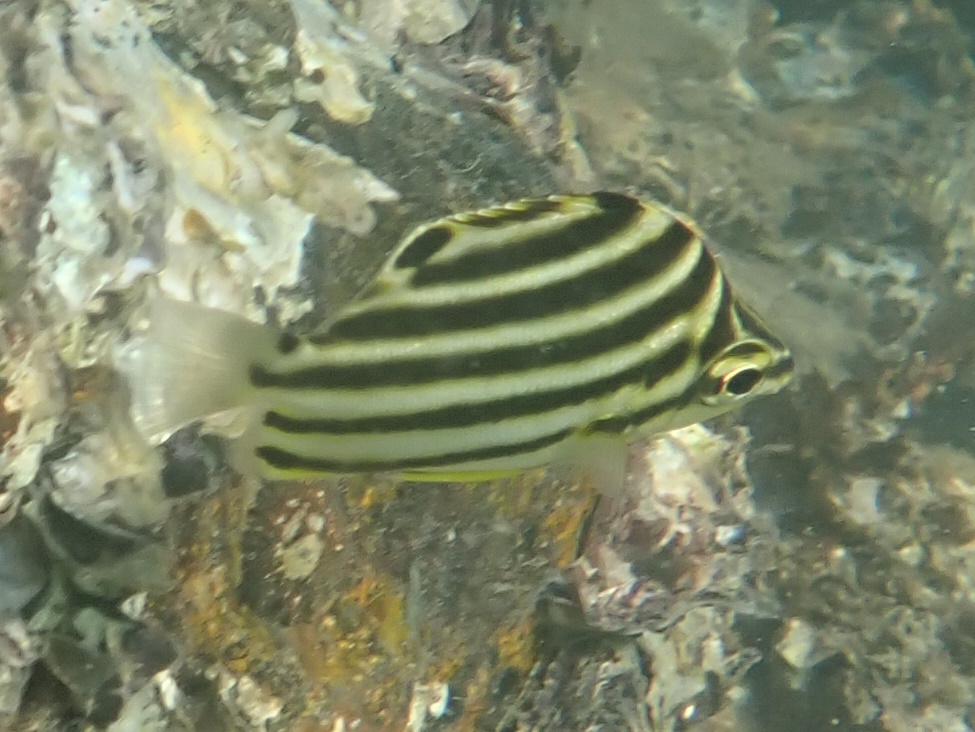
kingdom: Animalia
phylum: Chordata
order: Perciformes
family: Kyphosidae
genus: Microcanthus
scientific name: Microcanthus joyceae
